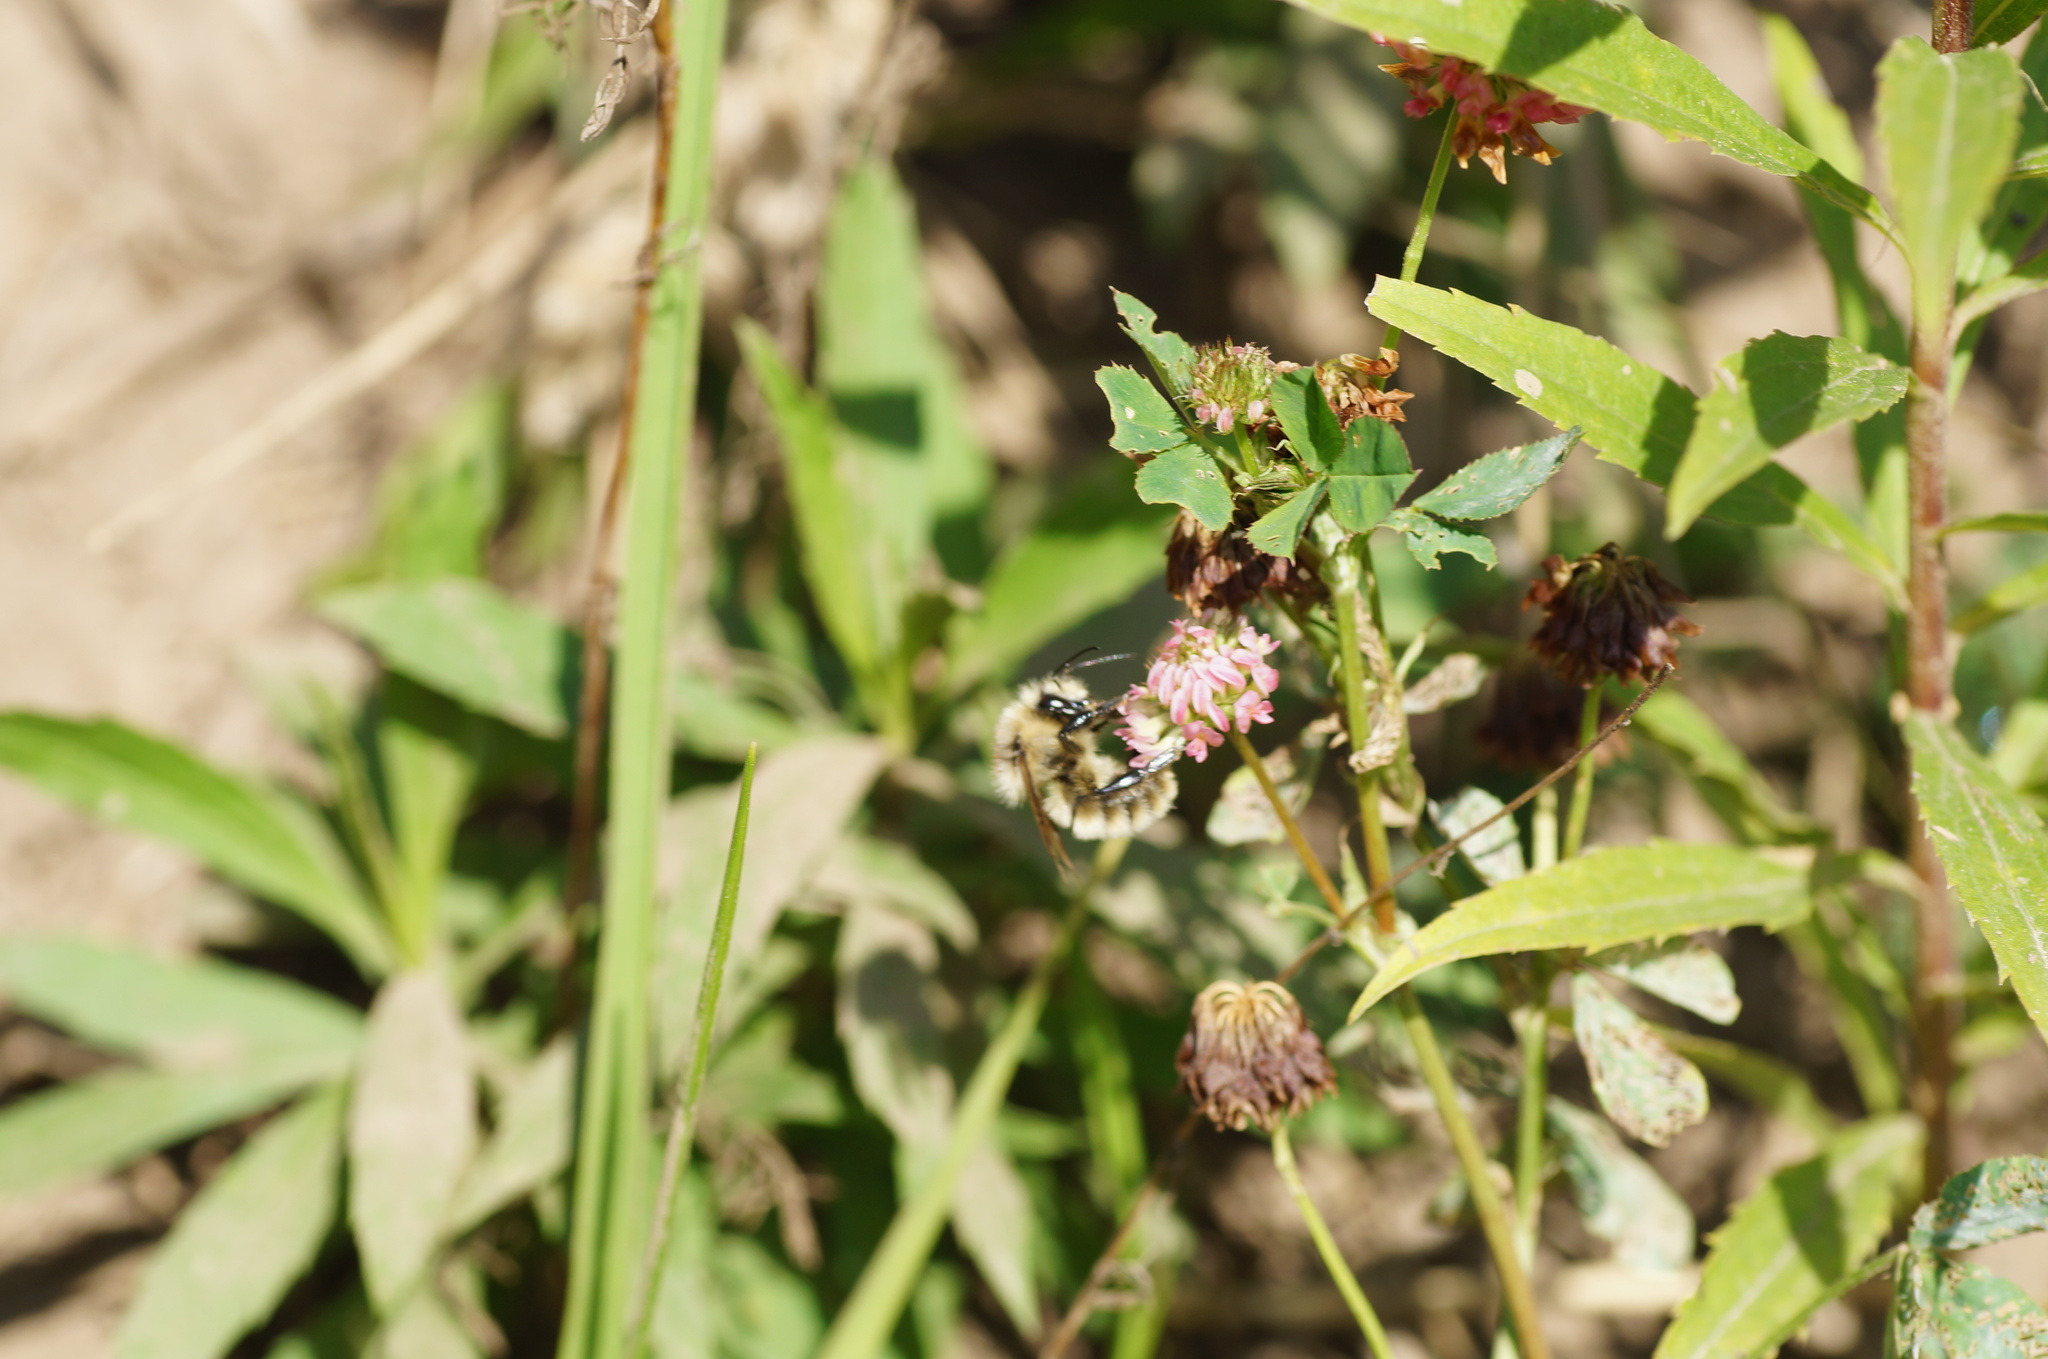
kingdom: Animalia
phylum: Arthropoda
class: Insecta
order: Hymenoptera
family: Apidae
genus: Bombus
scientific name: Bombus
